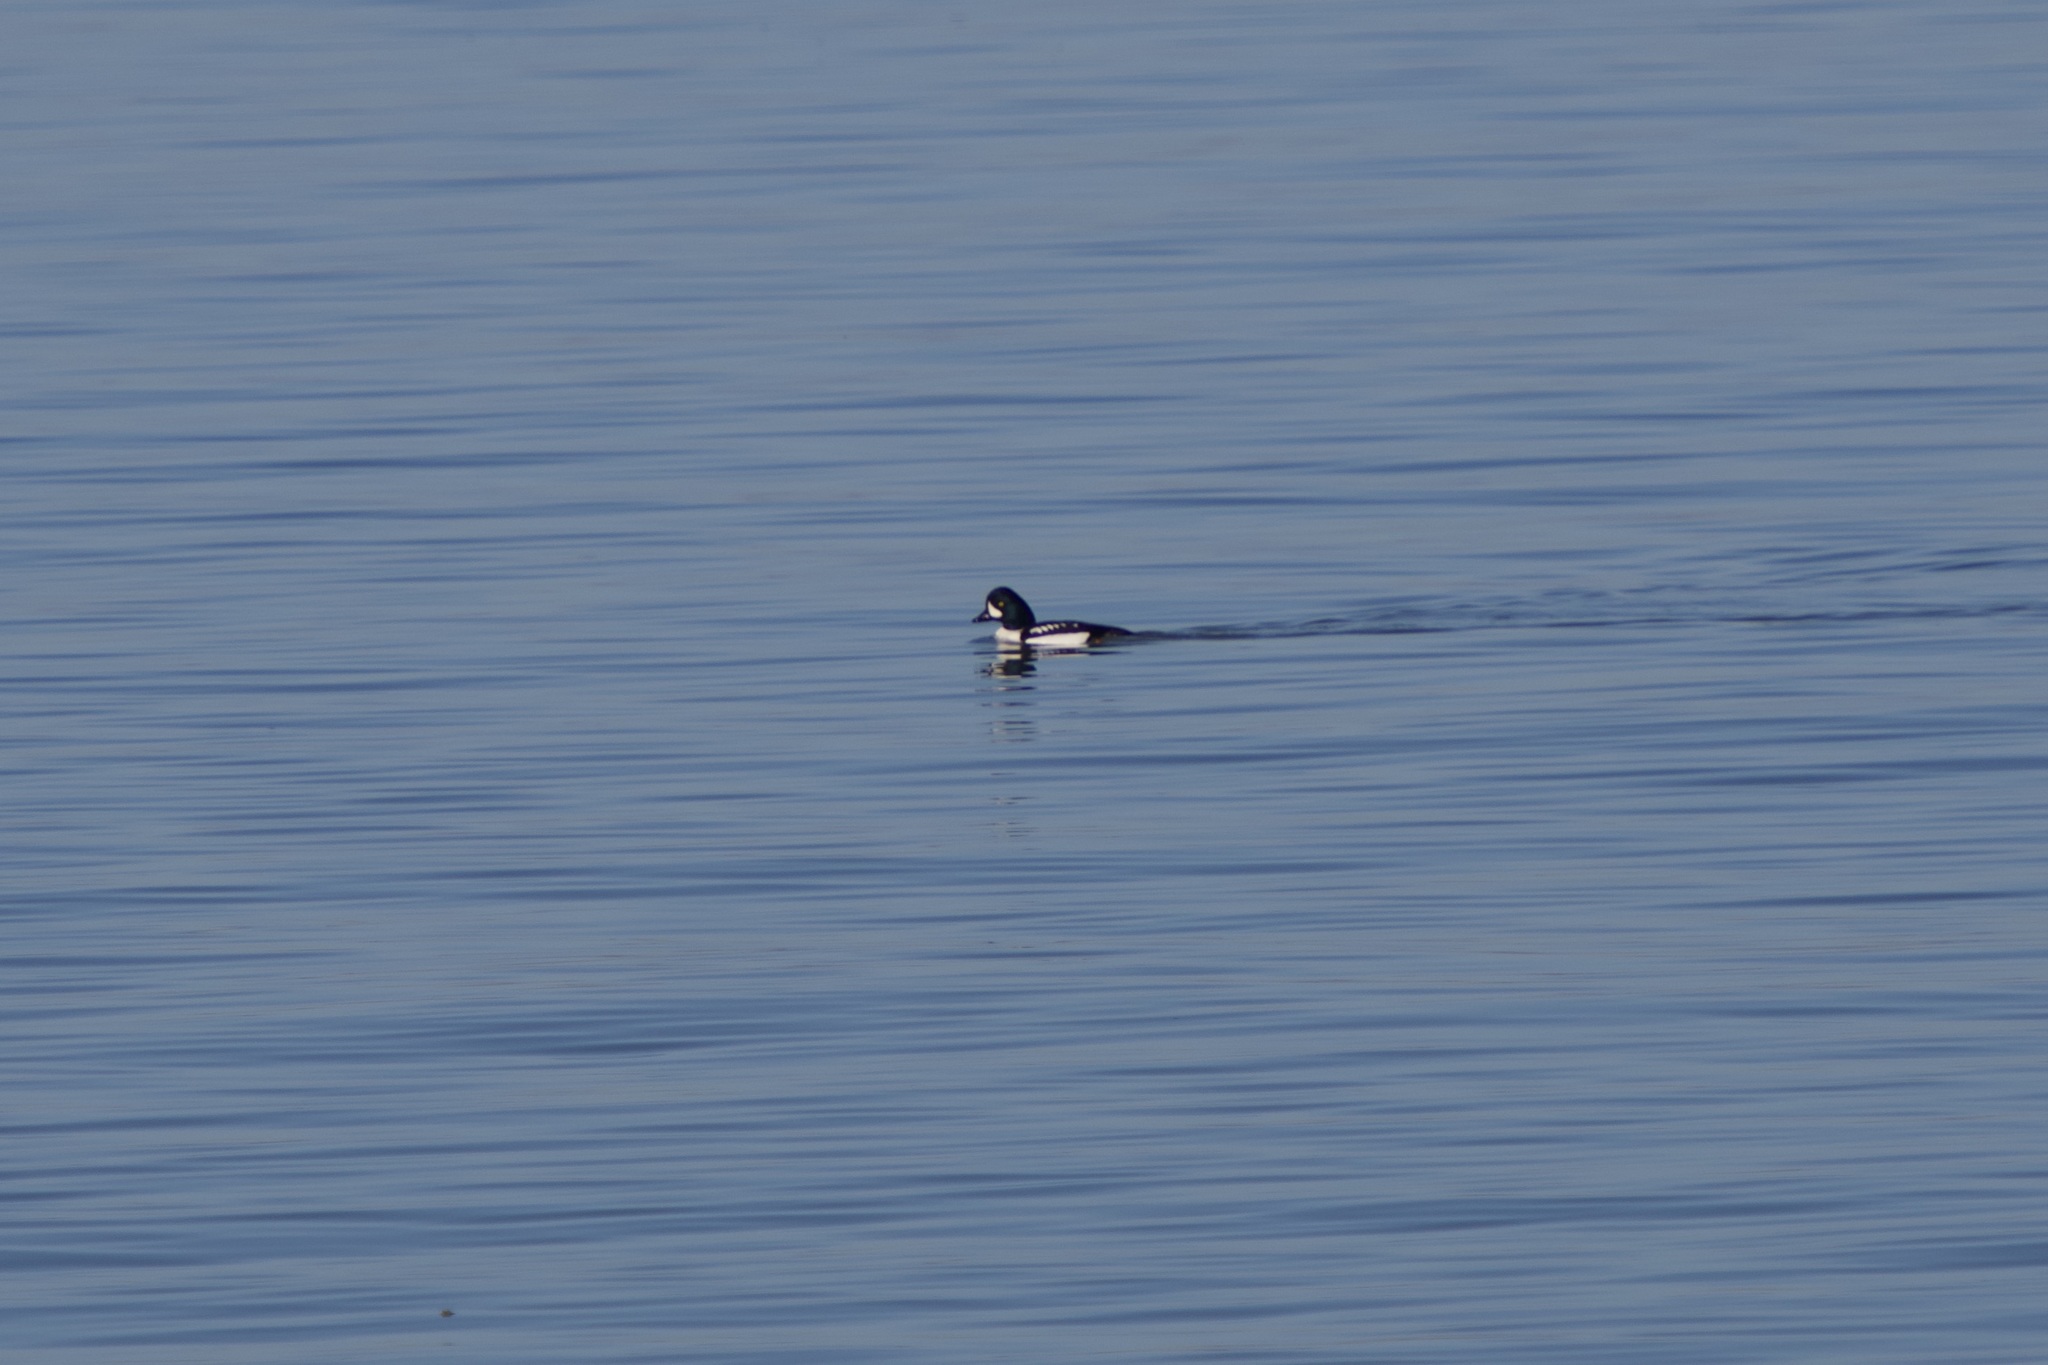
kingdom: Animalia
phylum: Chordata
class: Aves
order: Anseriformes
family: Anatidae
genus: Bucephala
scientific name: Bucephala islandica
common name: Barrow's goldeneye
